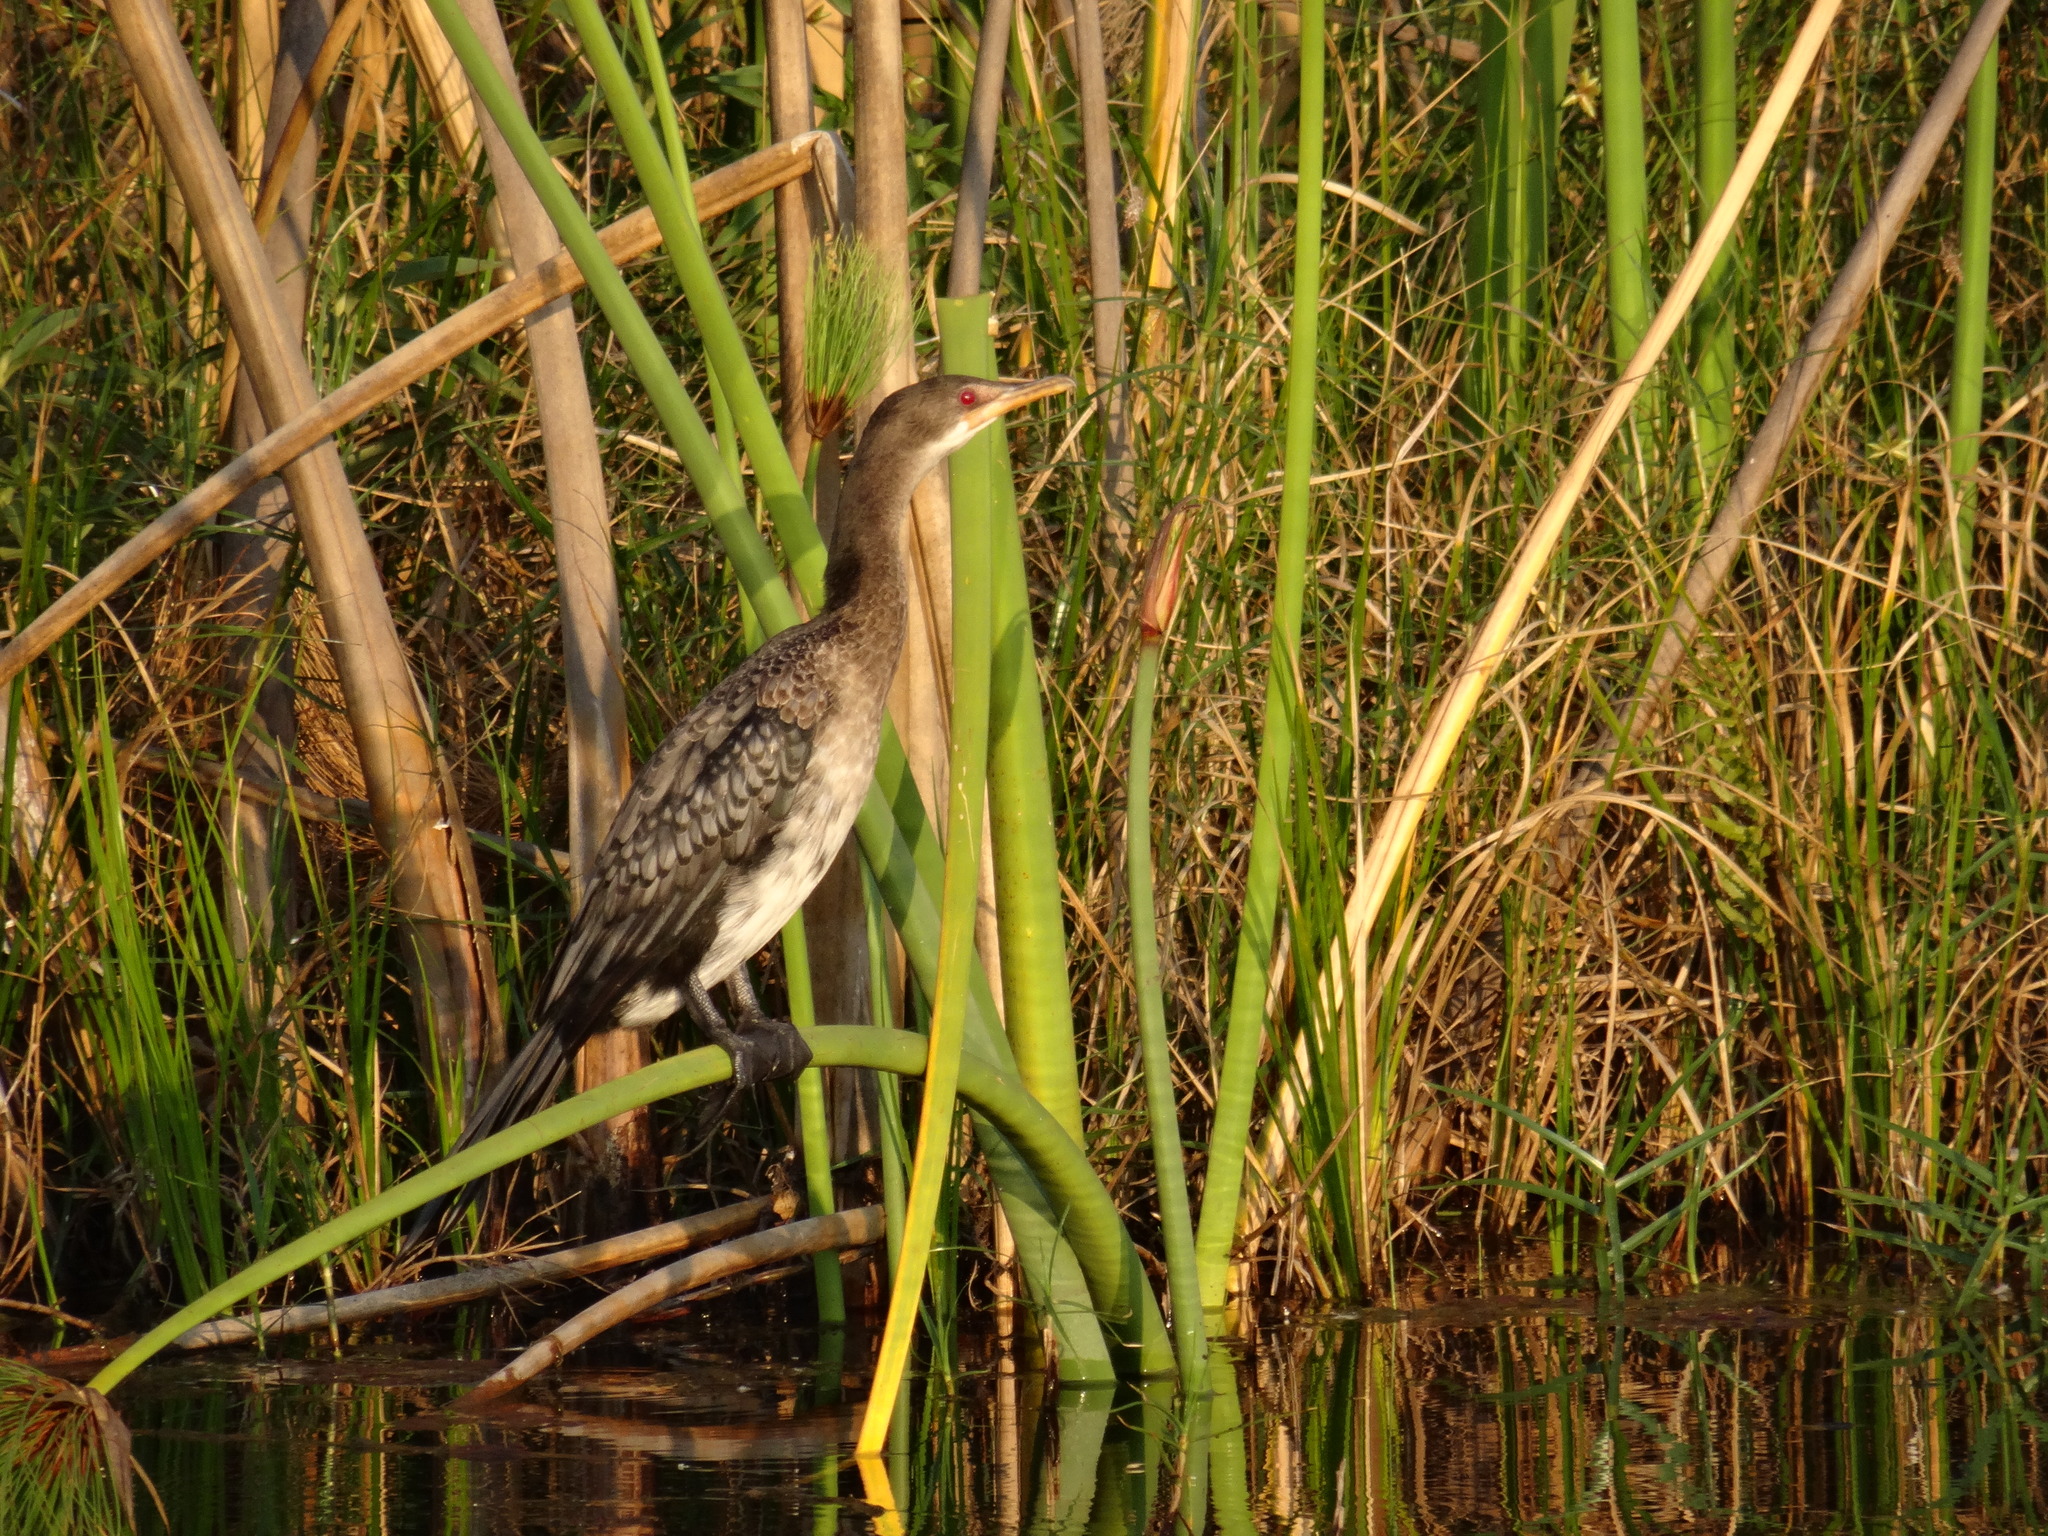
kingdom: Animalia
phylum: Chordata
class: Aves
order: Suliformes
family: Phalacrocoracidae
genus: Microcarbo
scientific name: Microcarbo africanus
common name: Long-tailed cormorant
